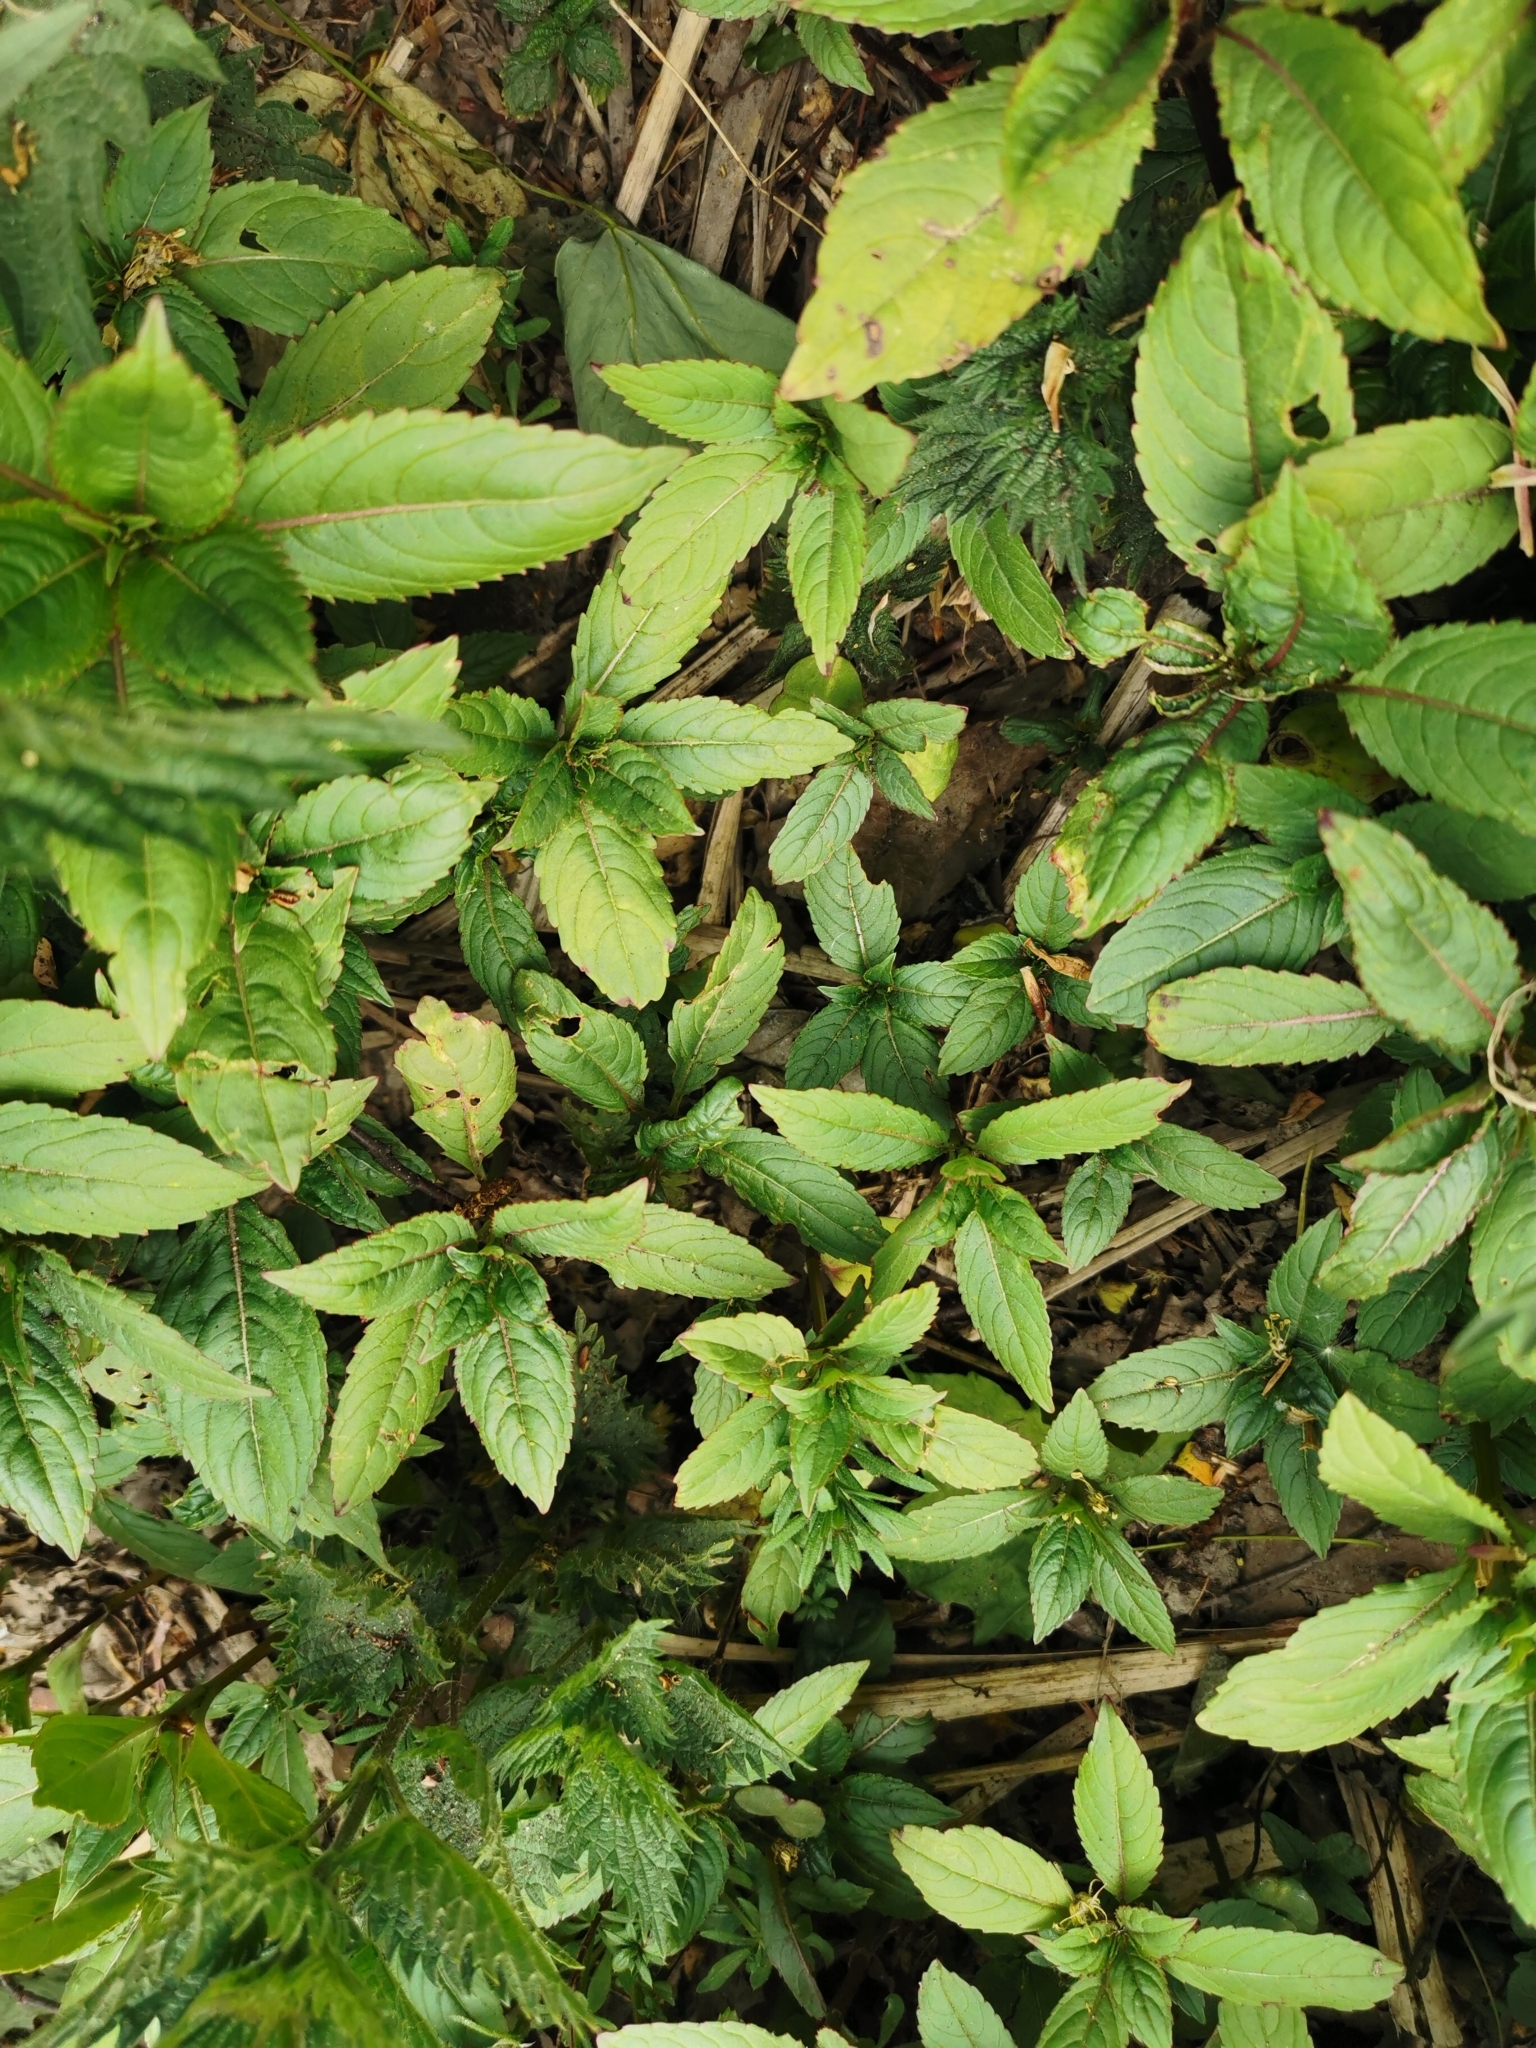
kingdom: Plantae
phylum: Tracheophyta
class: Magnoliopsida
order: Ericales
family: Balsaminaceae
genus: Impatiens
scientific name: Impatiens glandulifera
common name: Himalayan balsam
